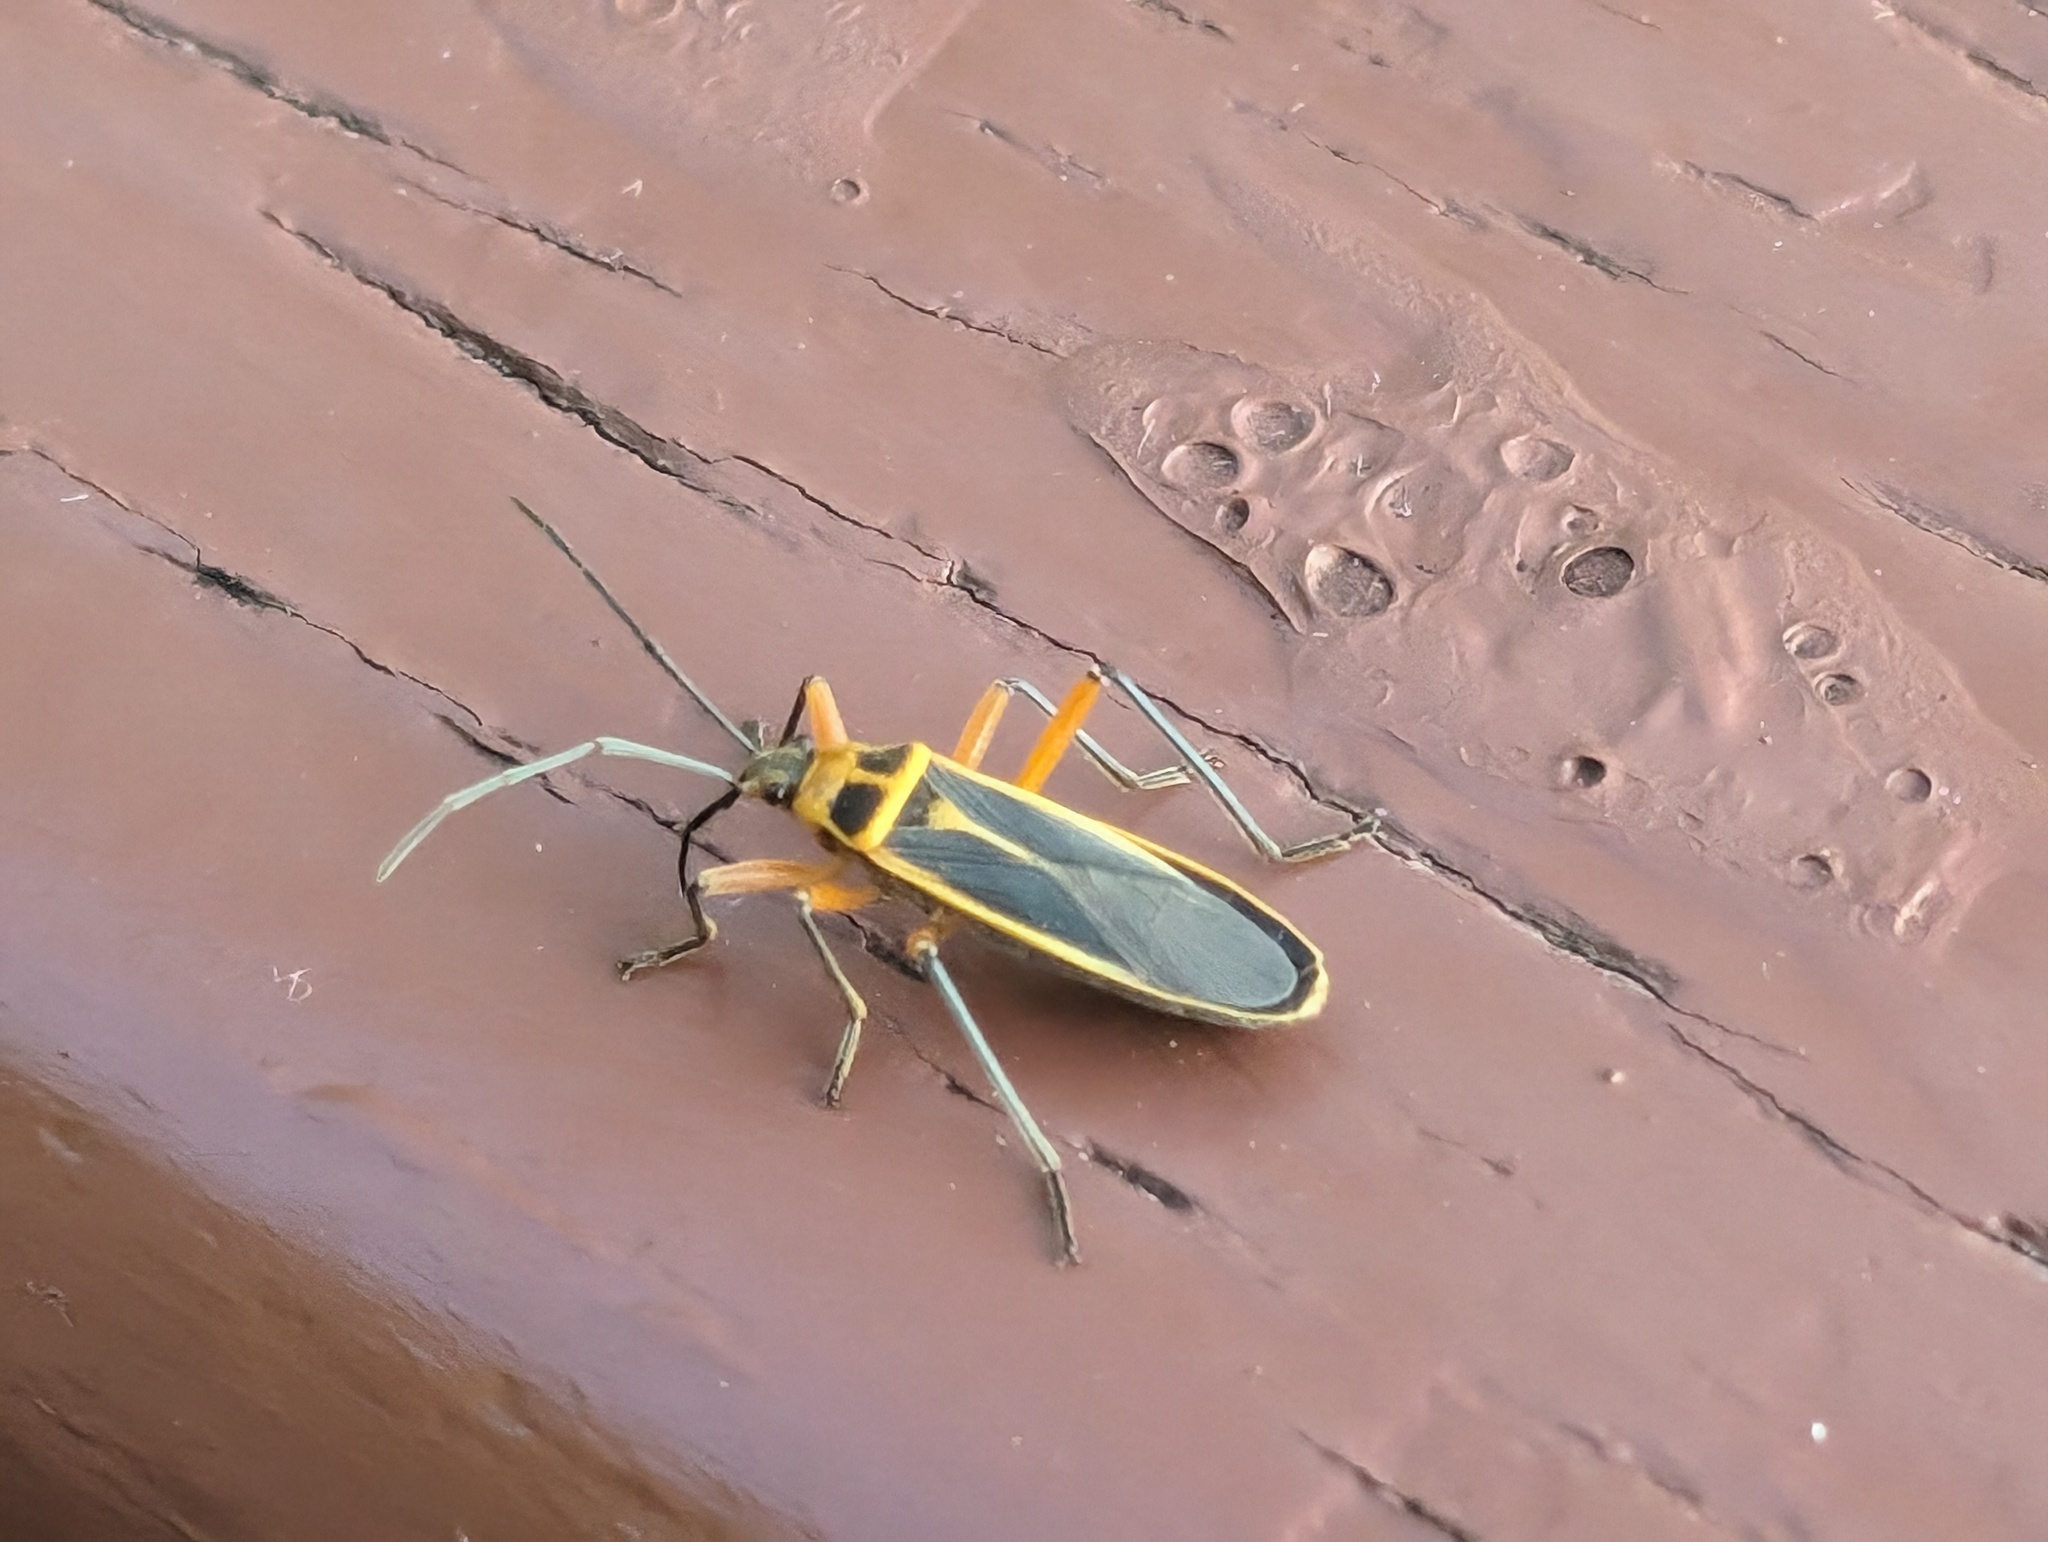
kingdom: Animalia
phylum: Arthropoda
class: Insecta
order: Hemiptera
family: Largidae
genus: Stenomacra
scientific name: Stenomacra marginella
